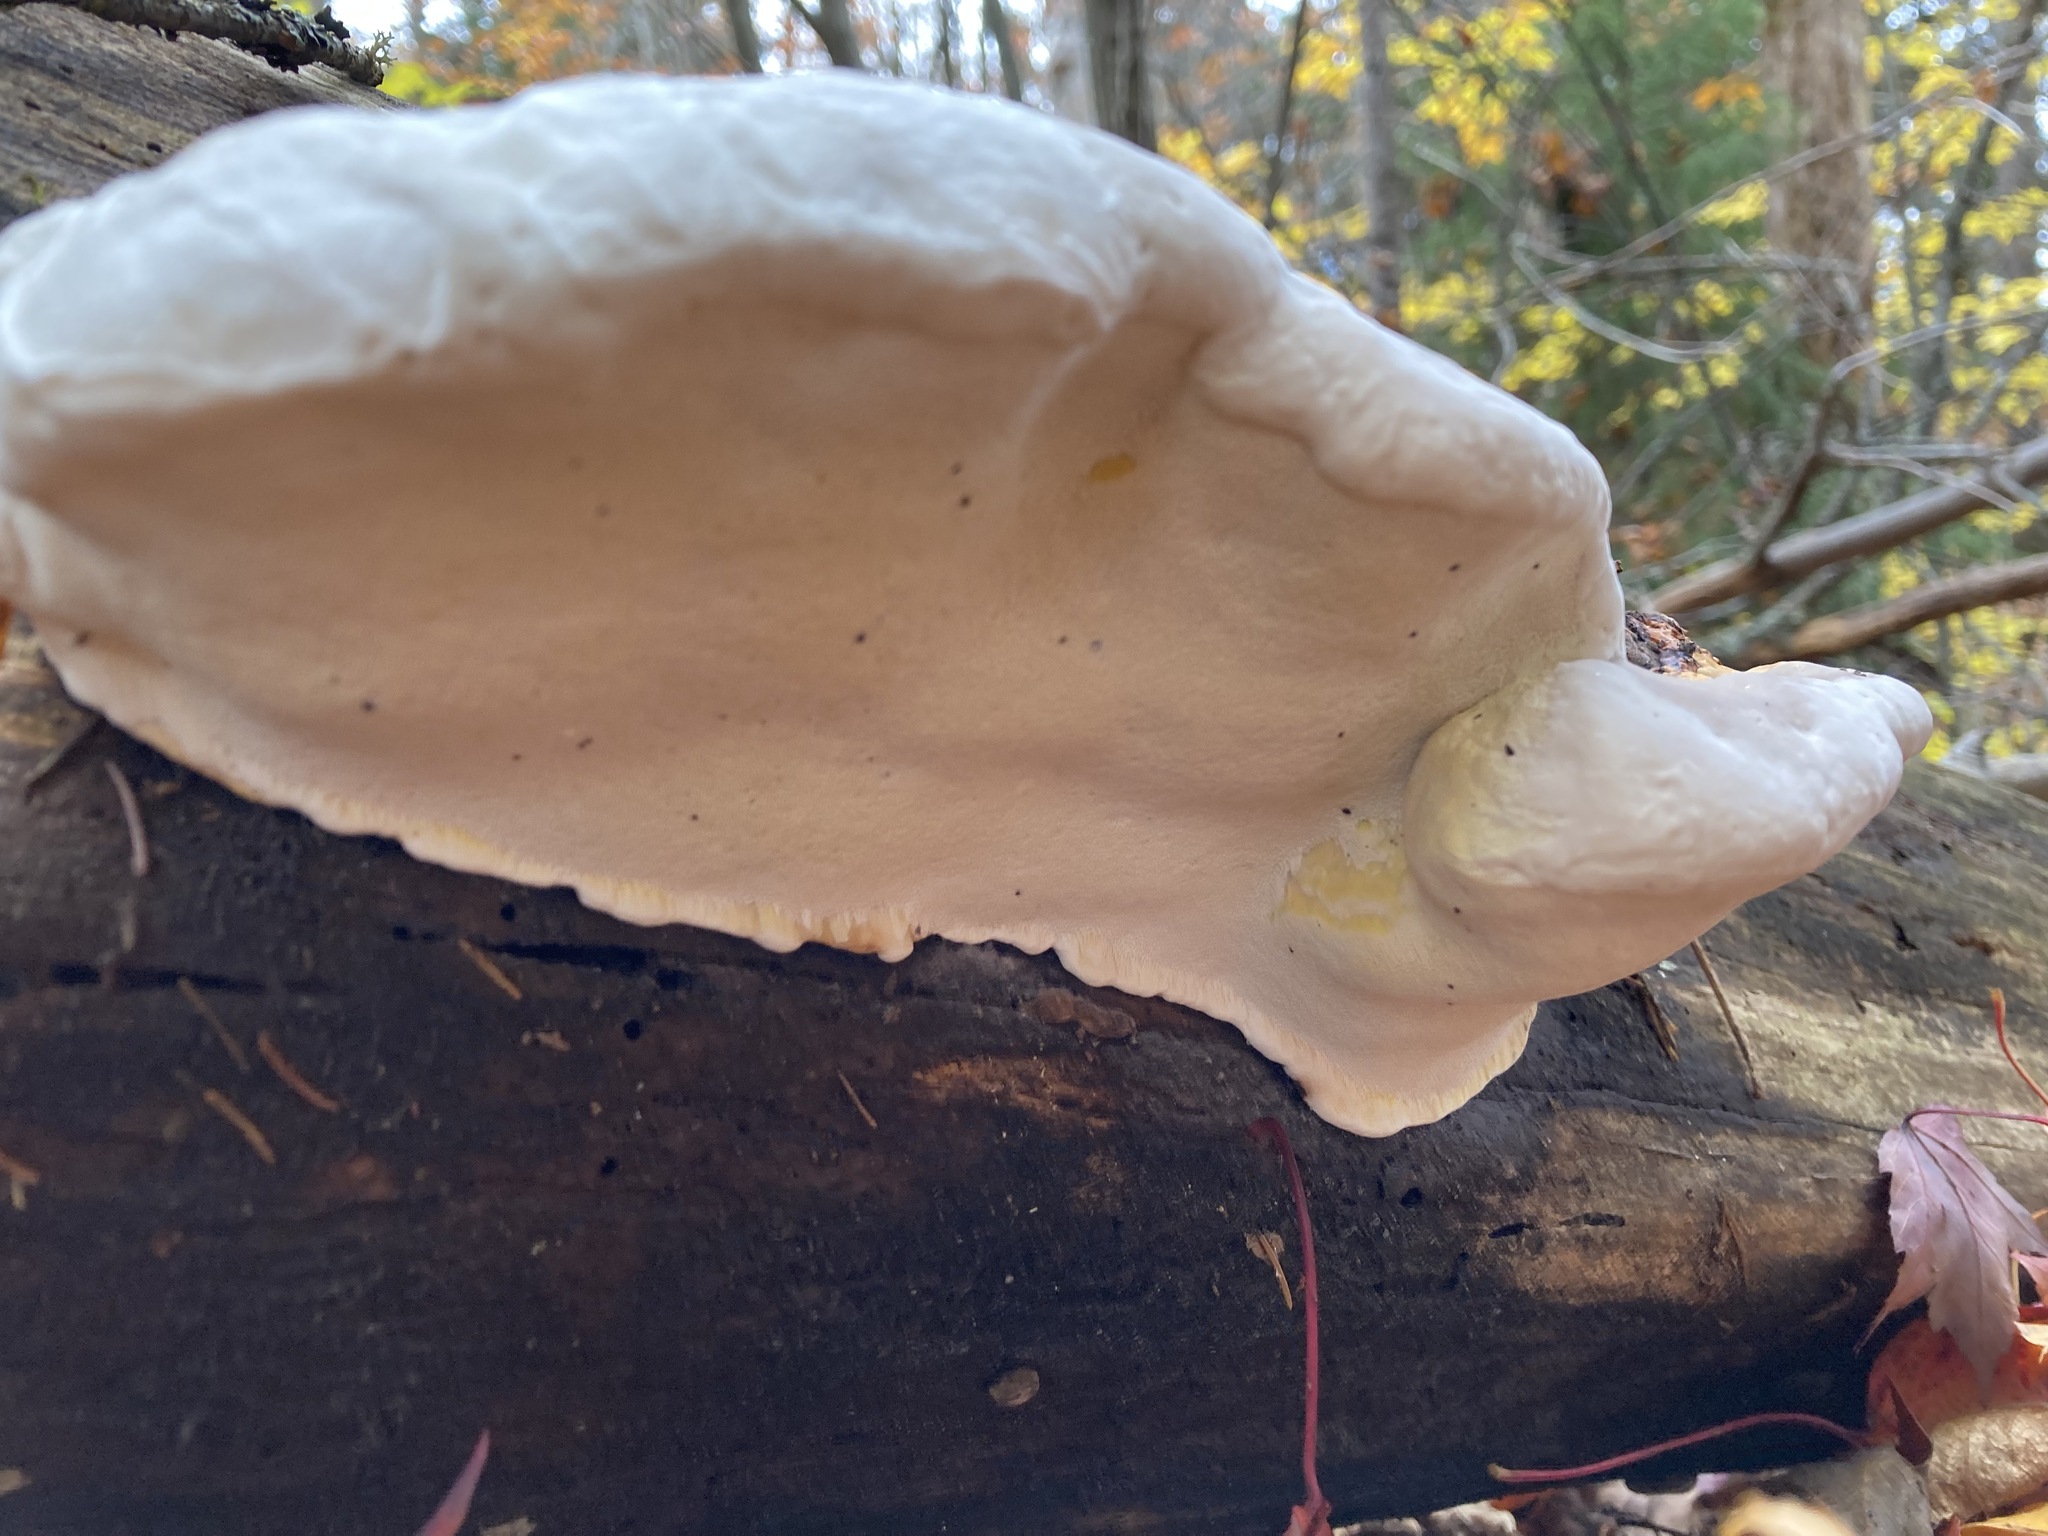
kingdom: Fungi
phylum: Basidiomycota
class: Agaricomycetes
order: Polyporales
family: Fomitopsidaceae
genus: Fomitopsis
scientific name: Fomitopsis mounceae
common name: Northern red belt
